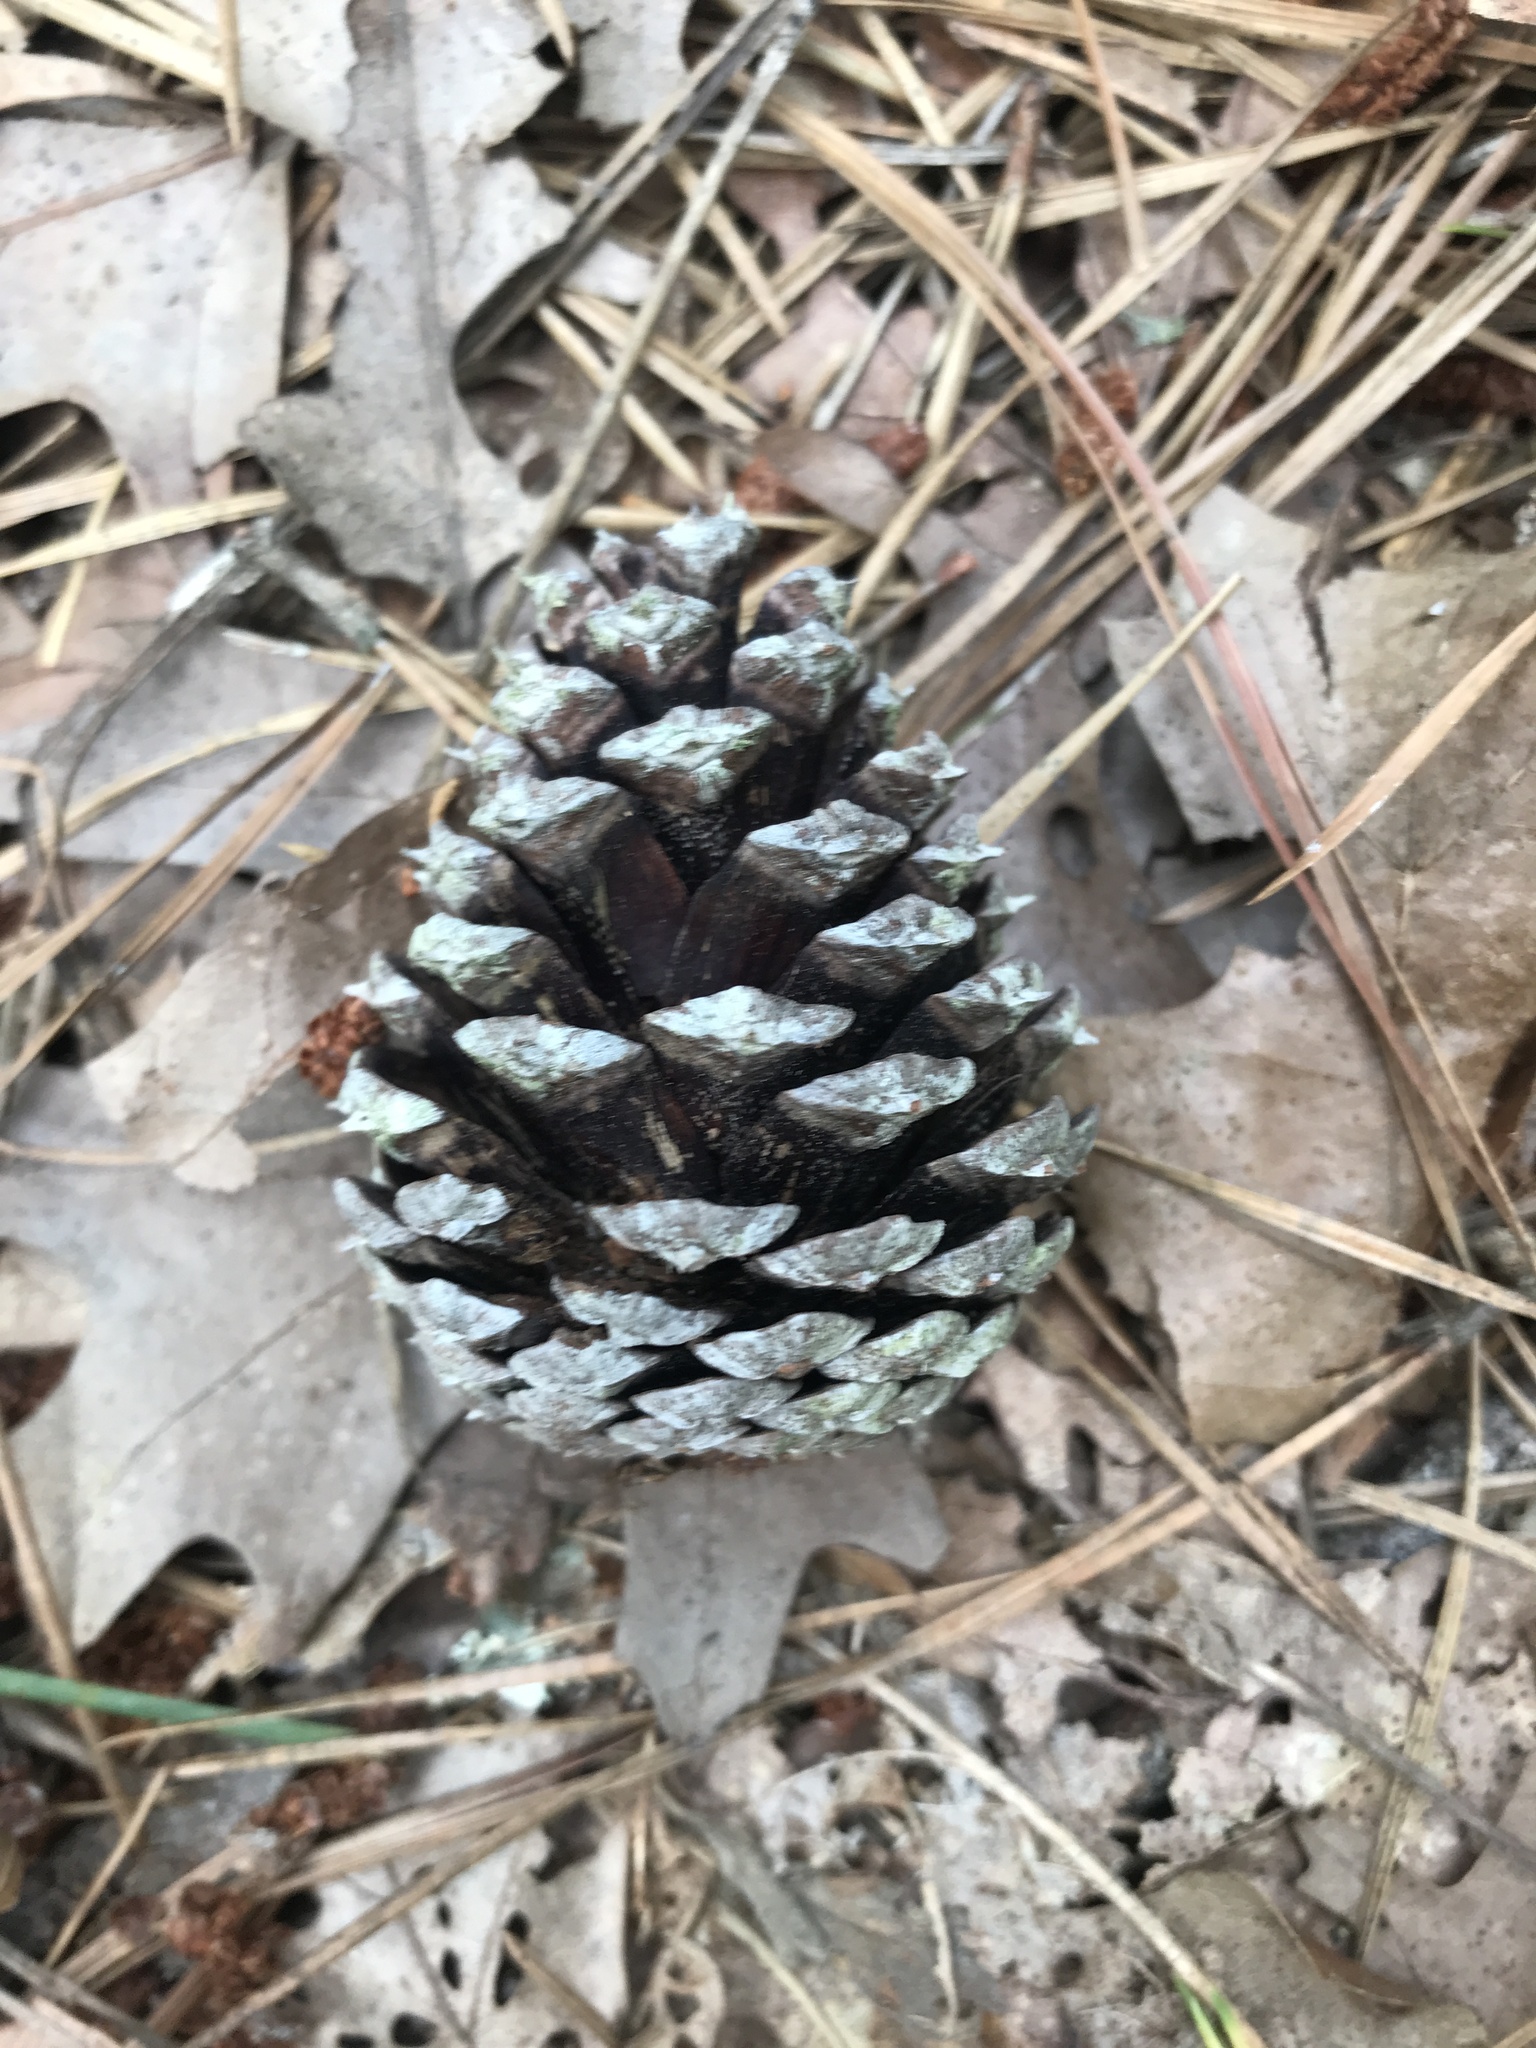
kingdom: Plantae
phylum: Tracheophyta
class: Pinopsida
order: Pinales
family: Pinaceae
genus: Pinus
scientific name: Pinus rigida
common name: Pitch pine
